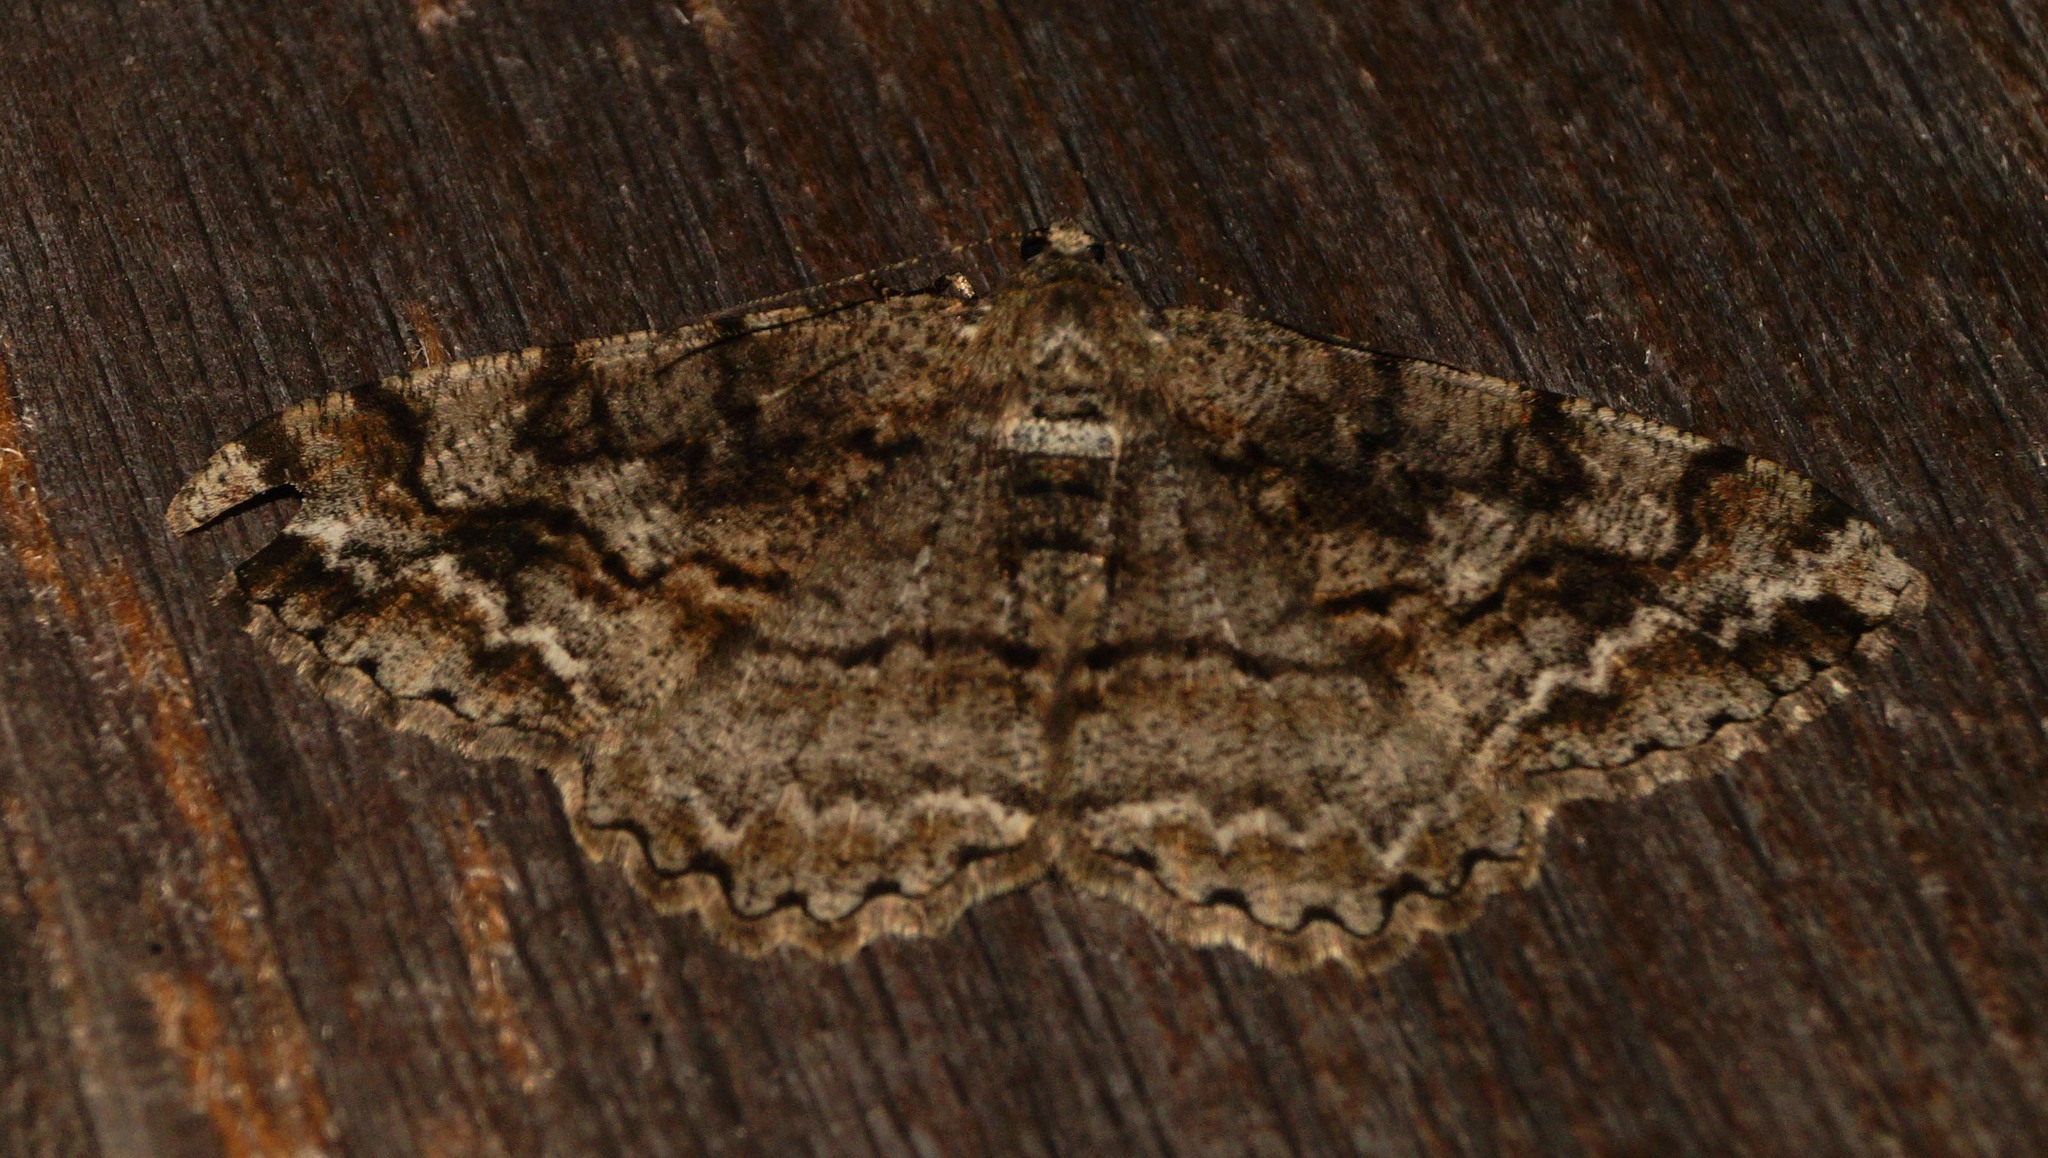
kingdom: Animalia
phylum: Arthropoda
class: Insecta
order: Lepidoptera
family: Geometridae
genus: Alcis
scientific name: Alcis repandata
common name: Mottled beauty
